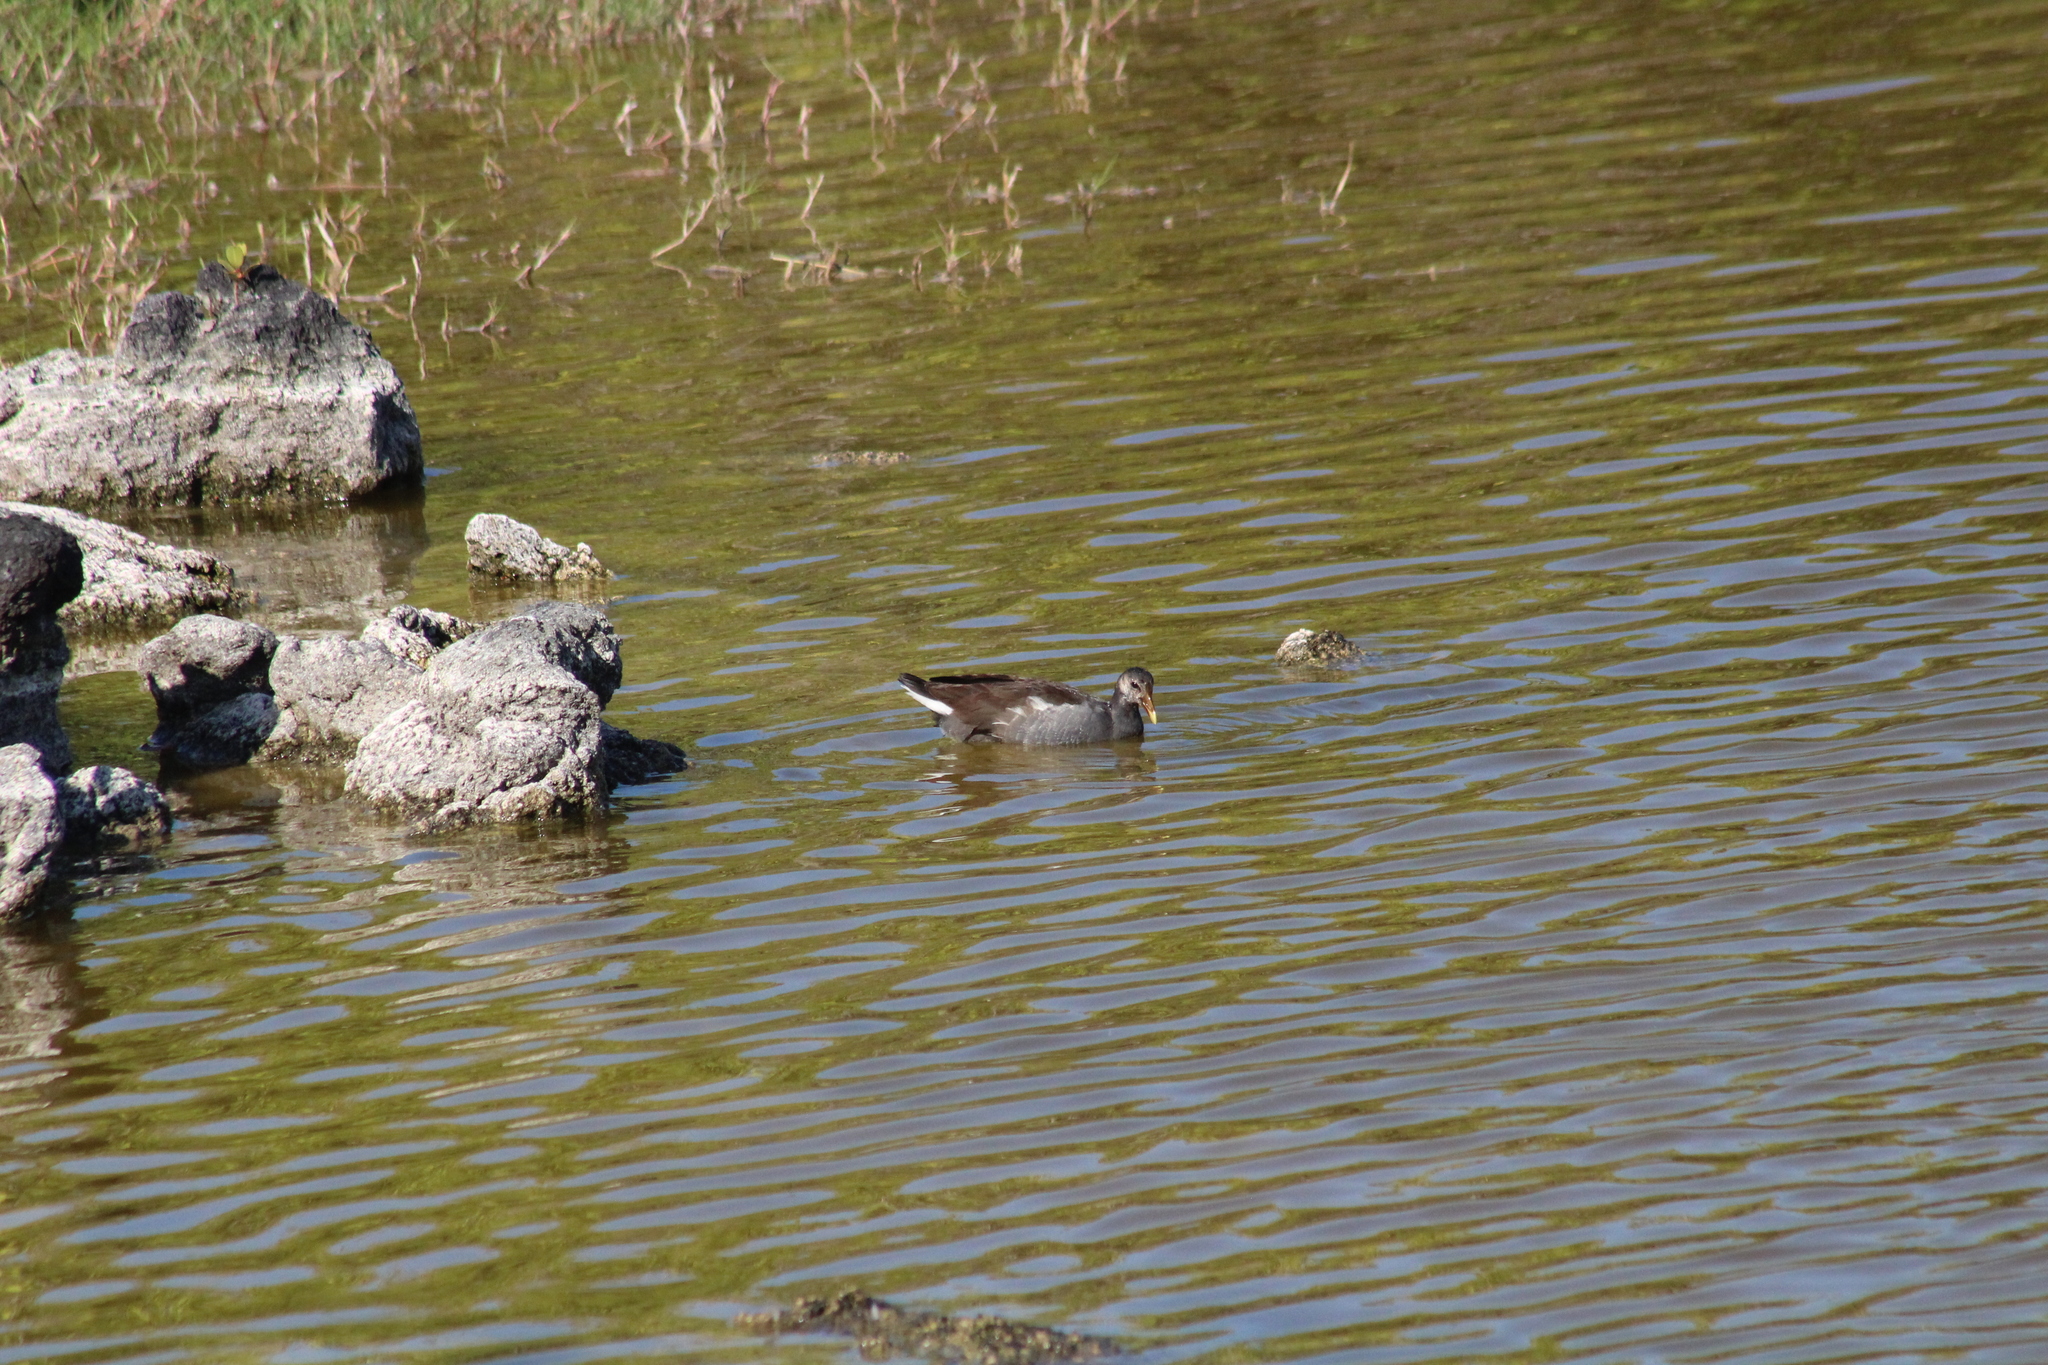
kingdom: Animalia
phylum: Chordata
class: Aves
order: Gruiformes
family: Rallidae
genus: Gallinula
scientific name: Gallinula chloropus
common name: Common moorhen
